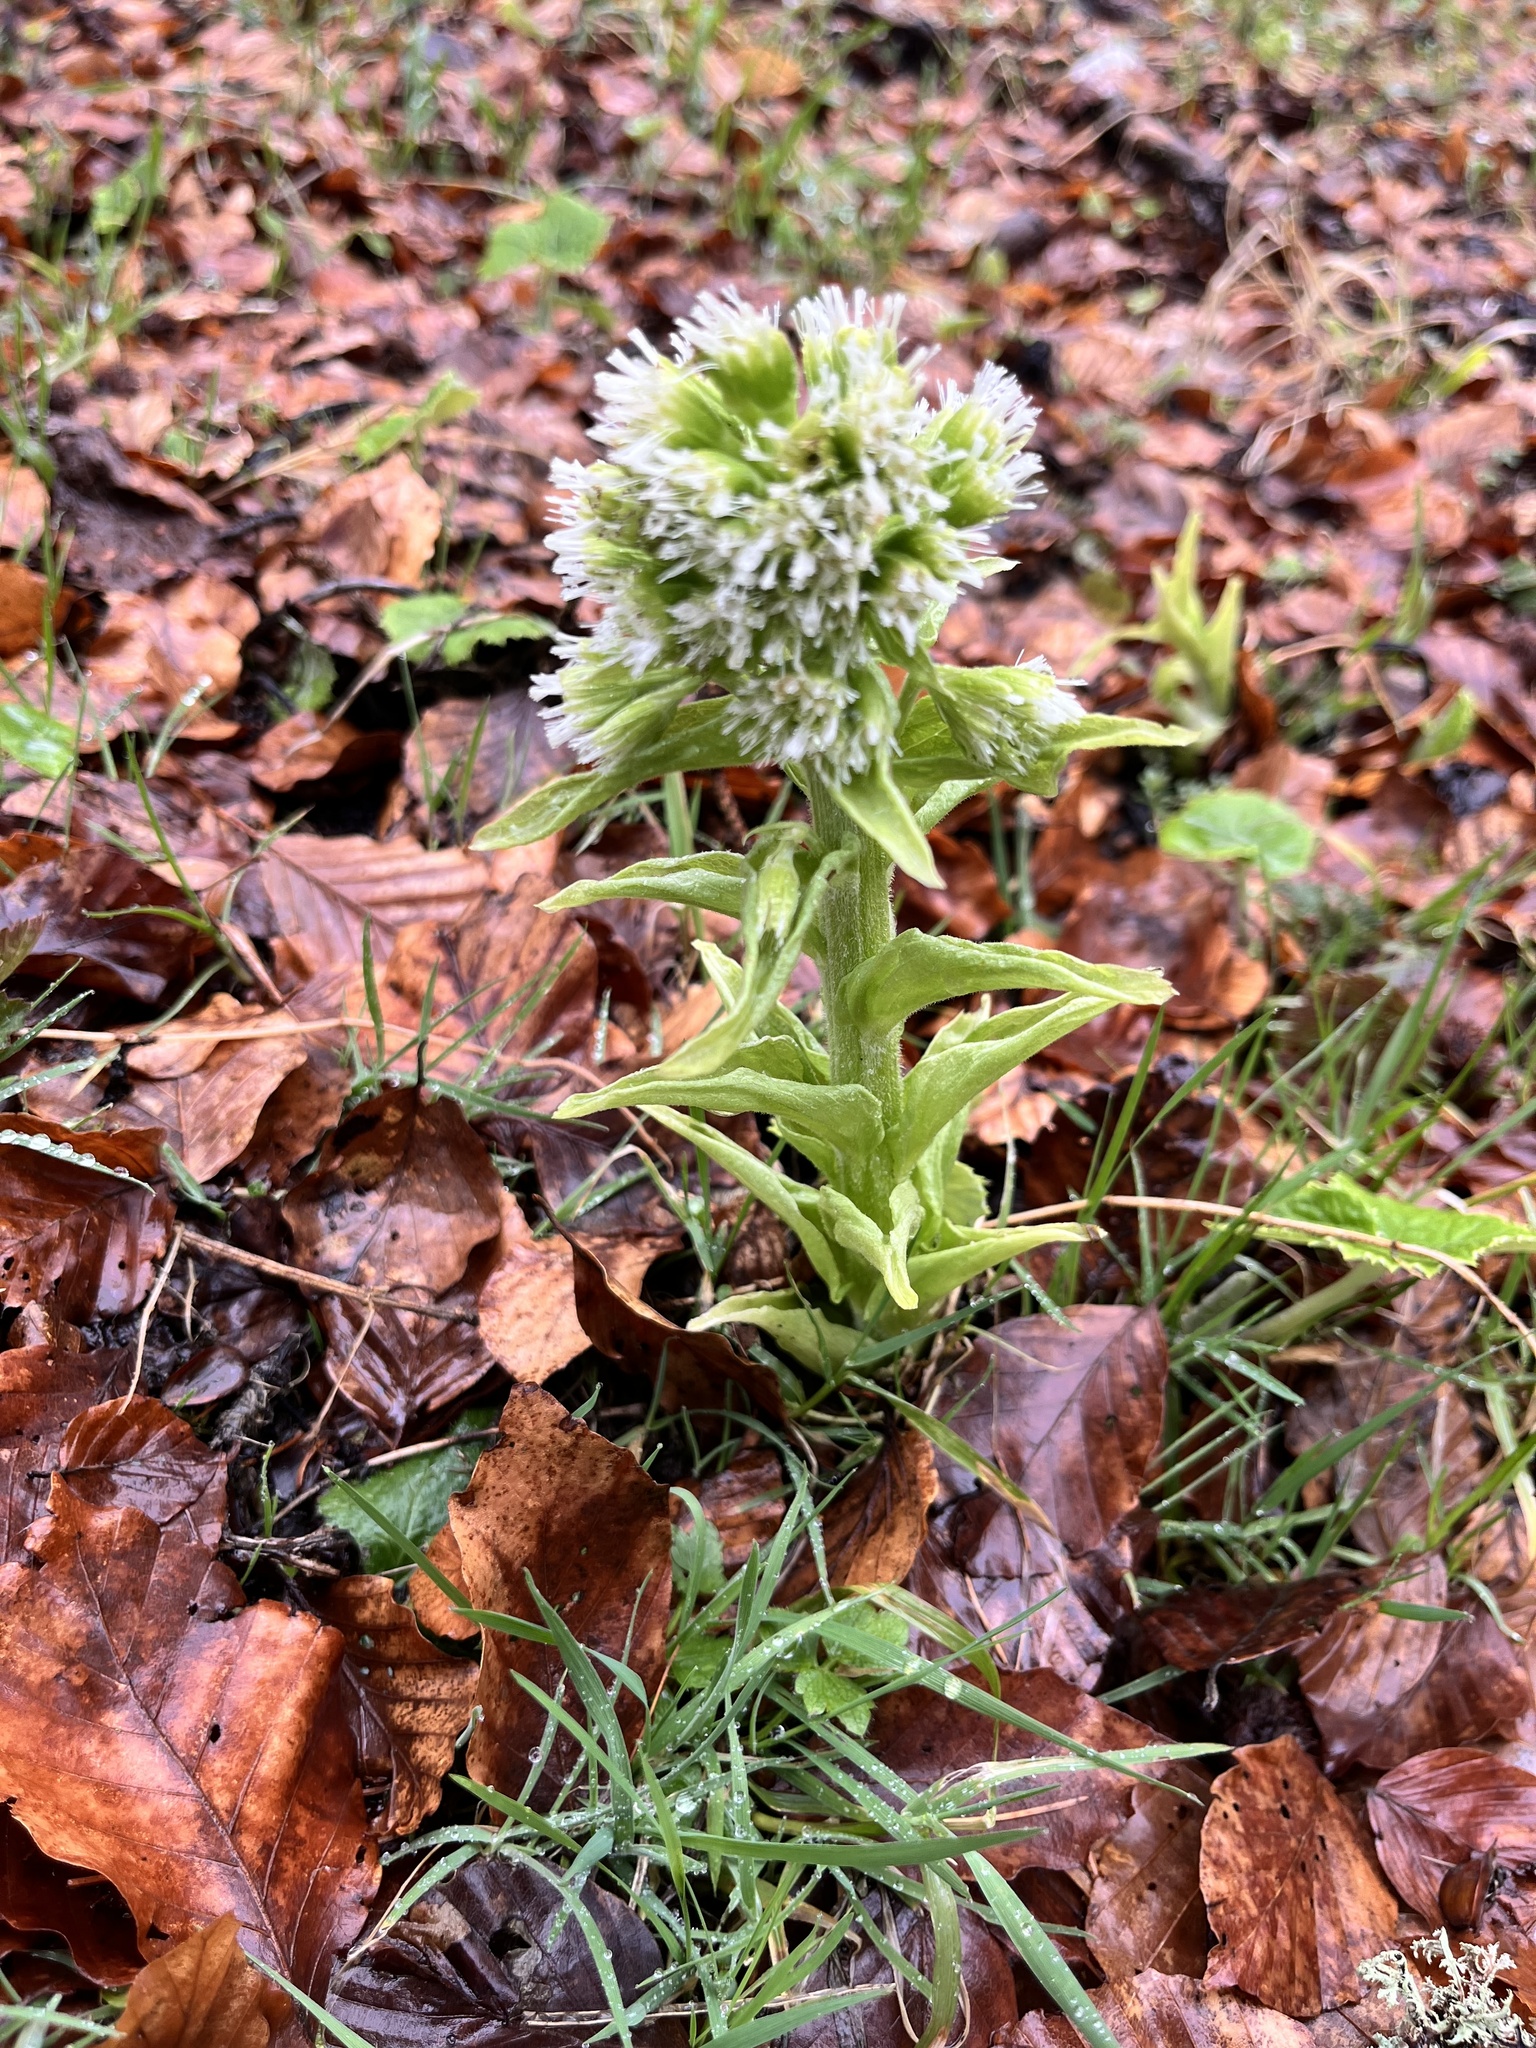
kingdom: Plantae
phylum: Tracheophyta
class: Magnoliopsida
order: Asterales
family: Asteraceae
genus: Petasites
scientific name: Petasites albus
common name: White butterbur
